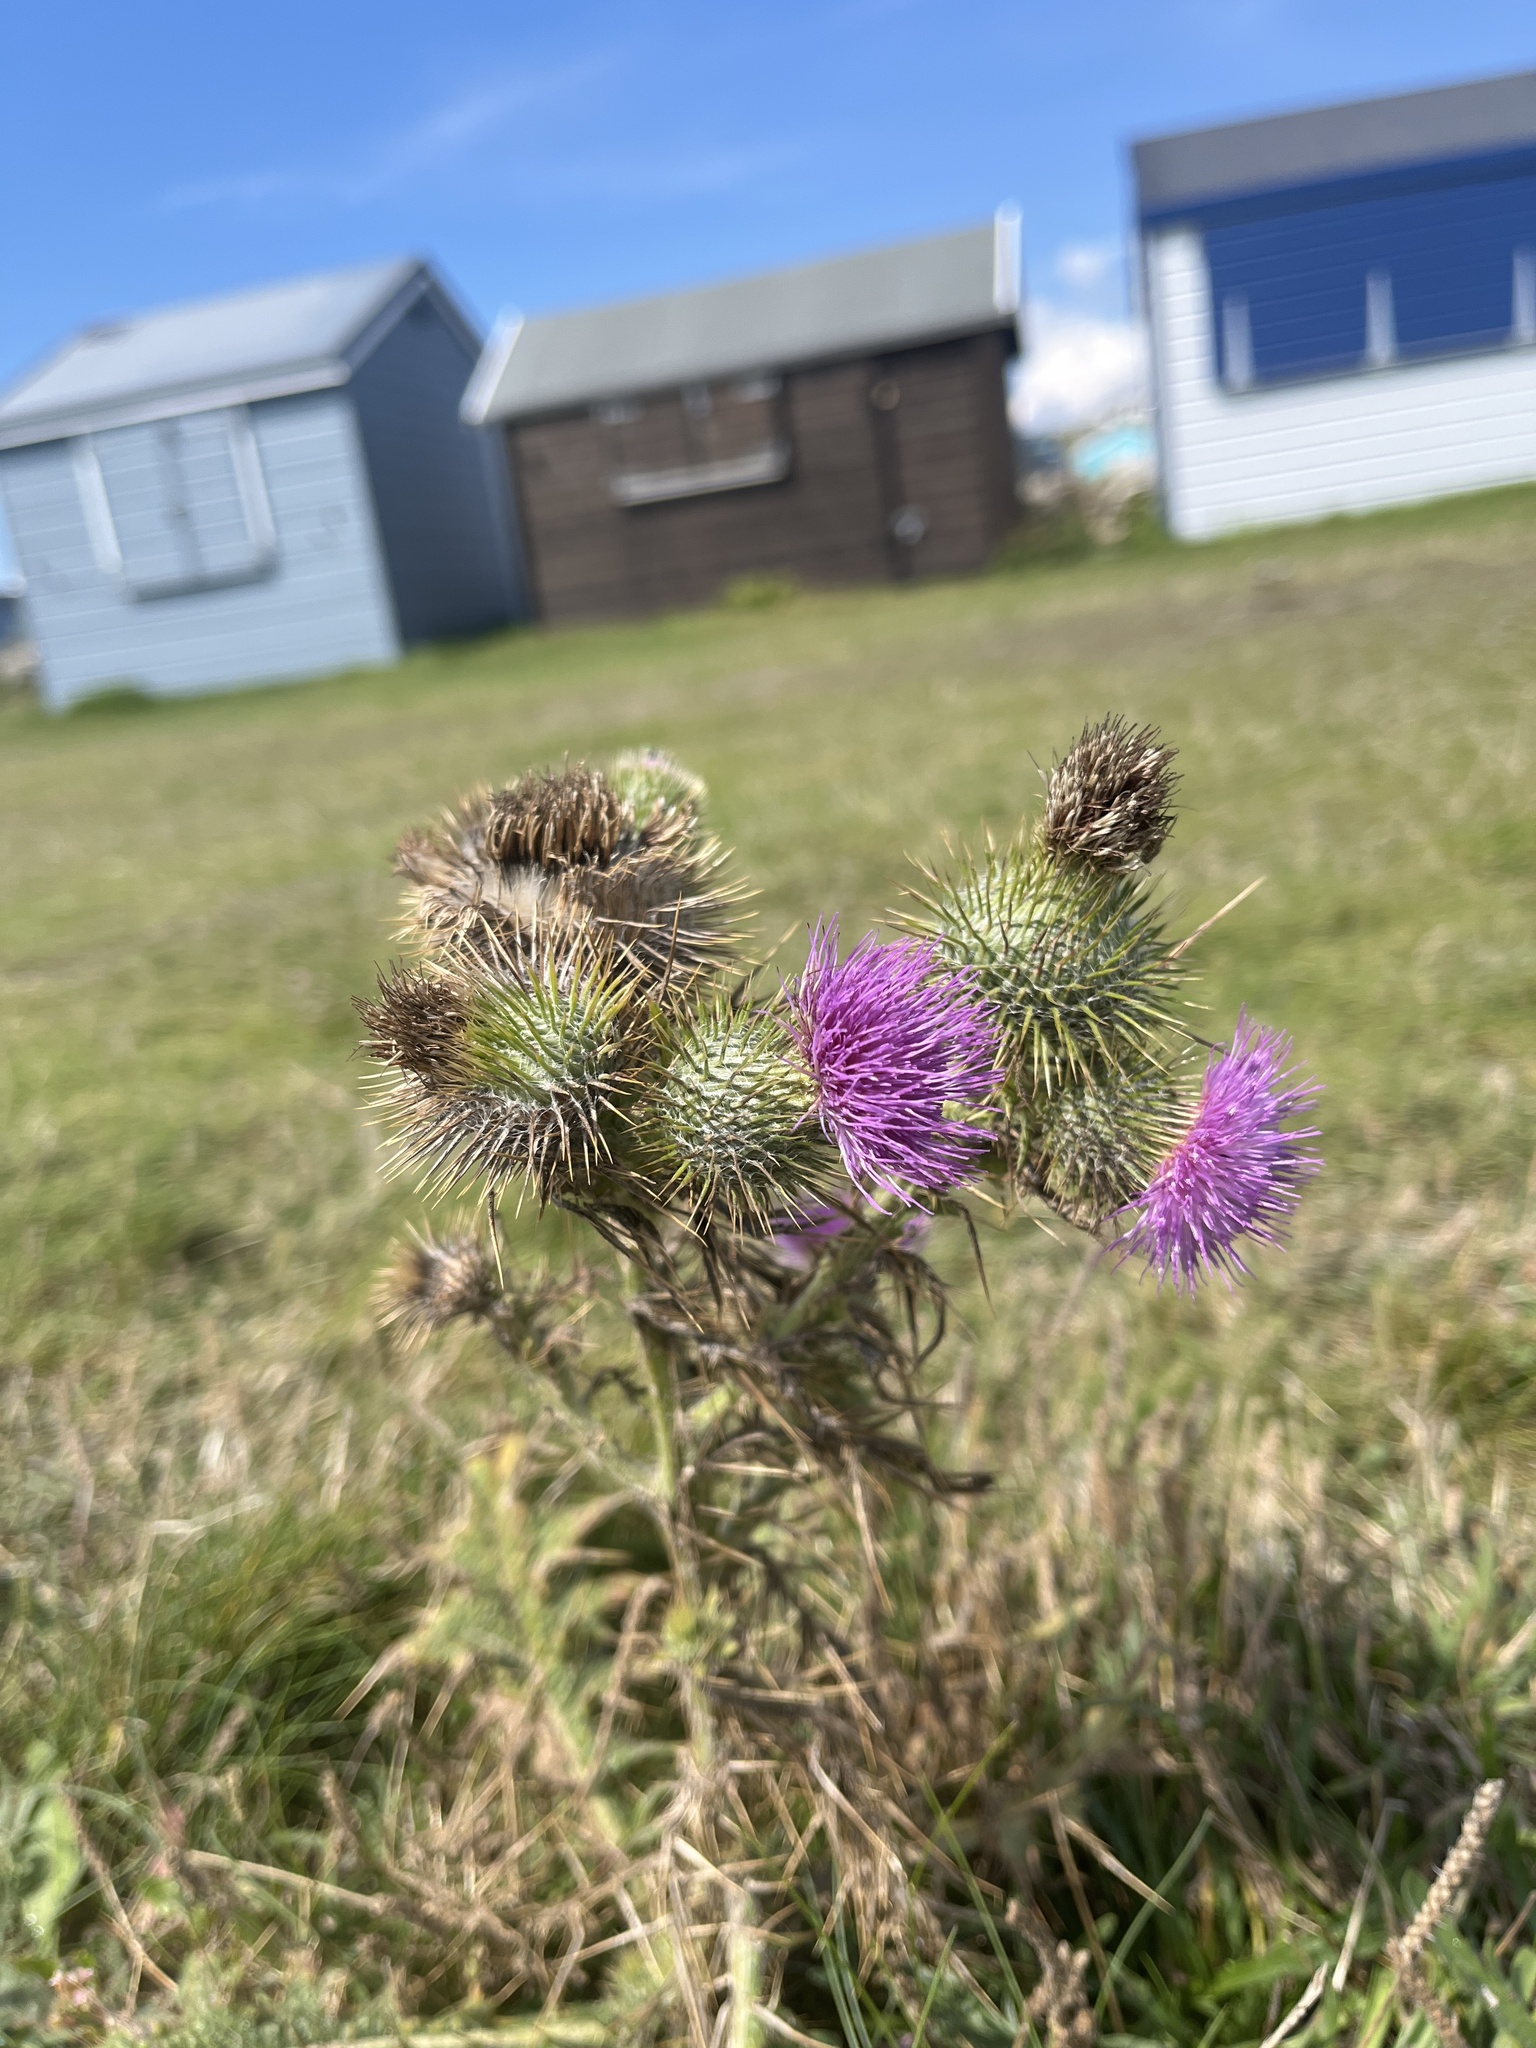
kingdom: Plantae
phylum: Tracheophyta
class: Magnoliopsida
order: Asterales
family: Asteraceae
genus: Cirsium
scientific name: Cirsium vulgare
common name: Bull thistle
